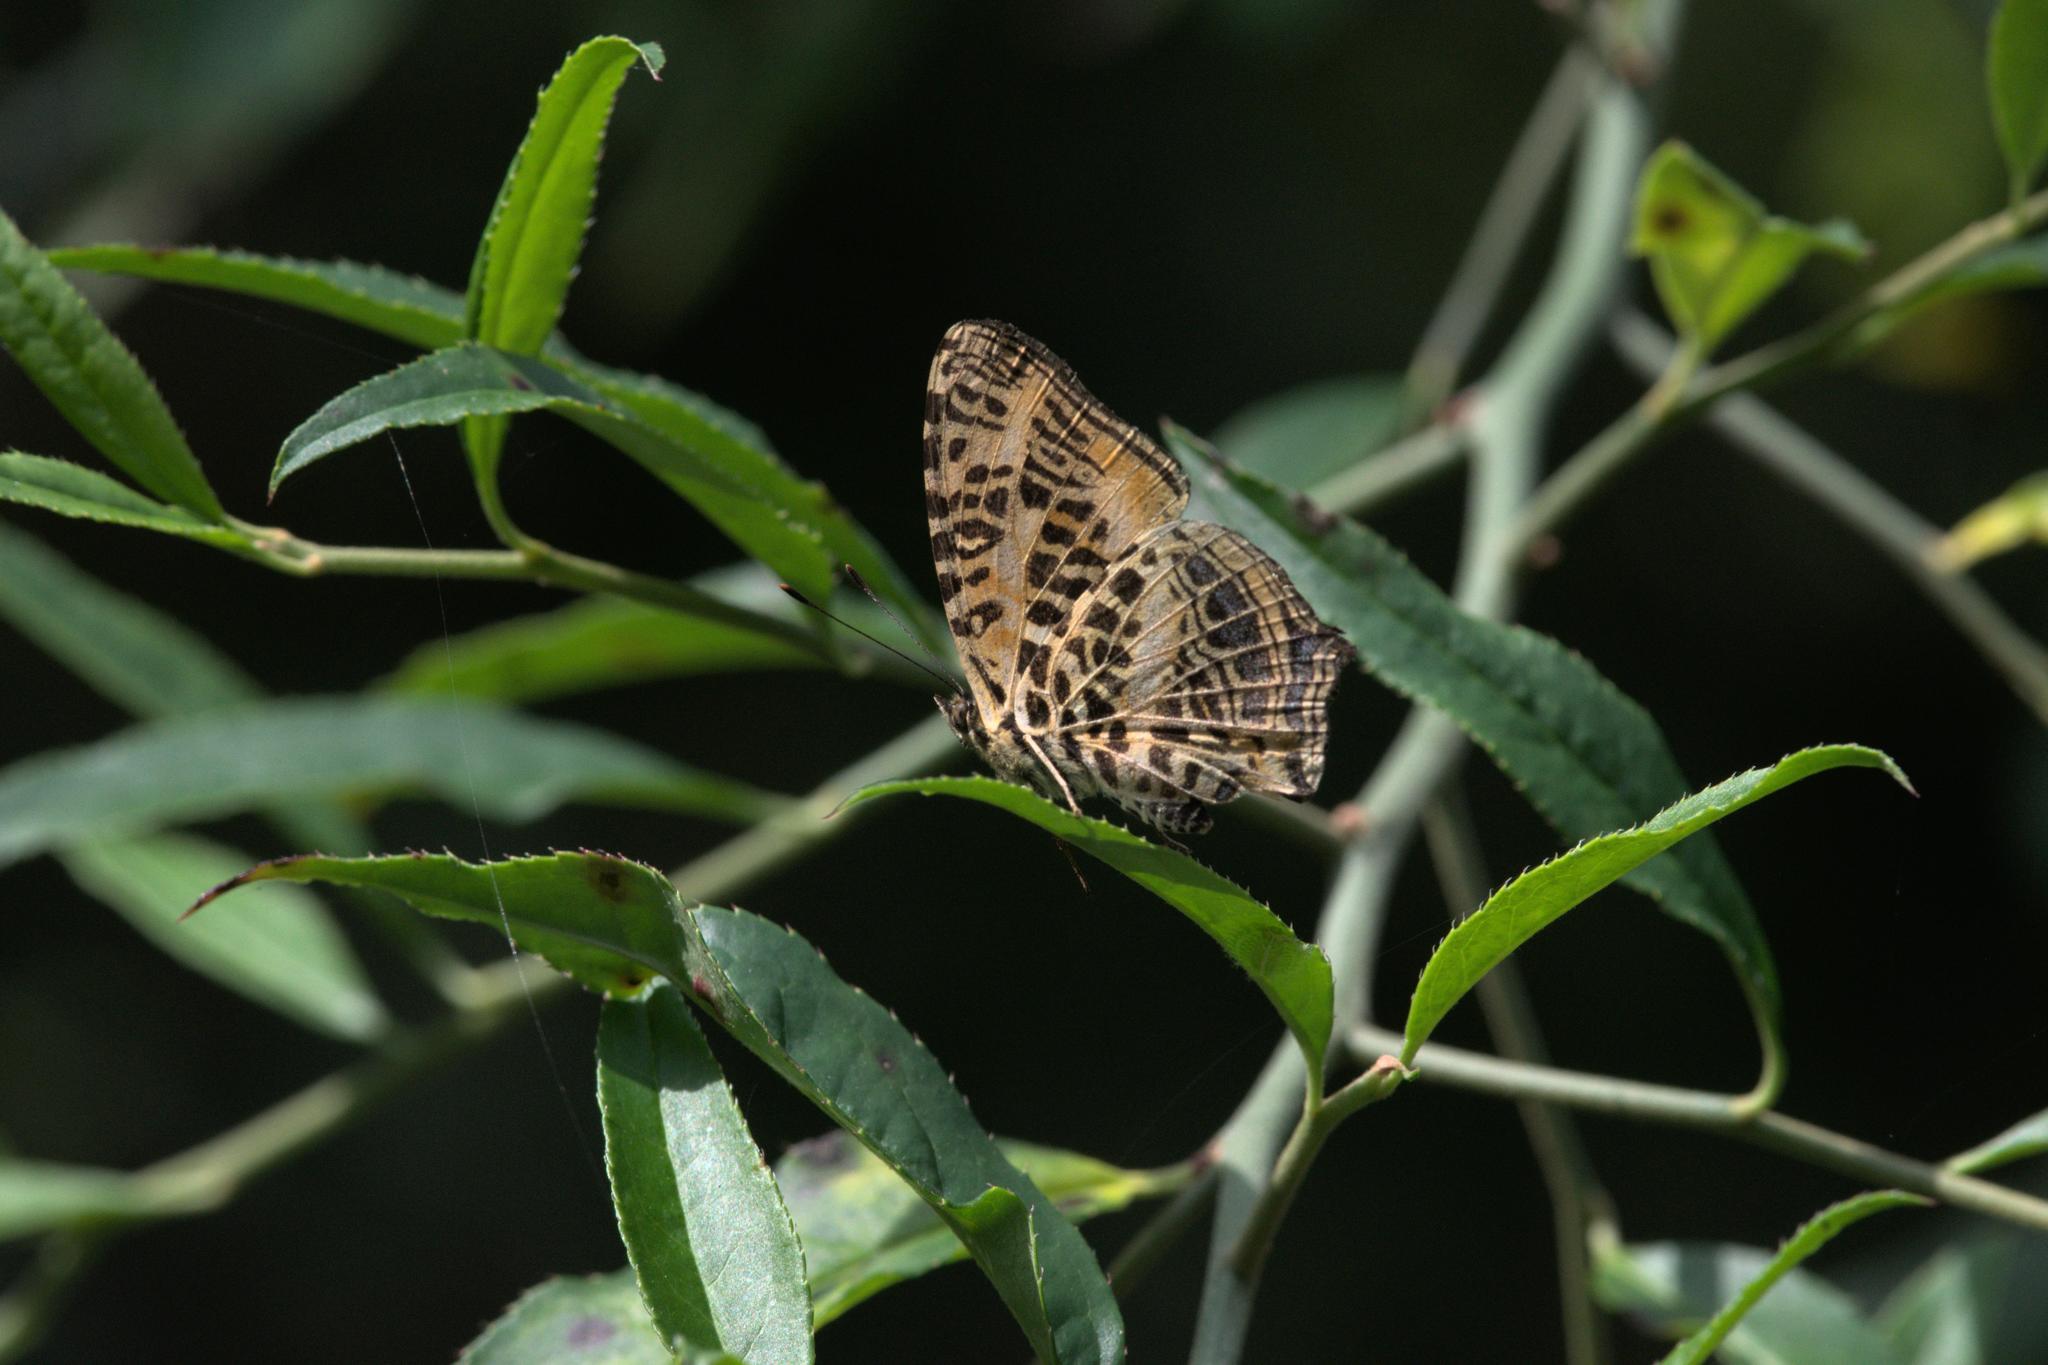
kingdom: Animalia
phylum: Arthropoda
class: Insecta
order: Lepidoptera
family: Nymphalidae
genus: Symbrenthia
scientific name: Symbrenthia niphanda
